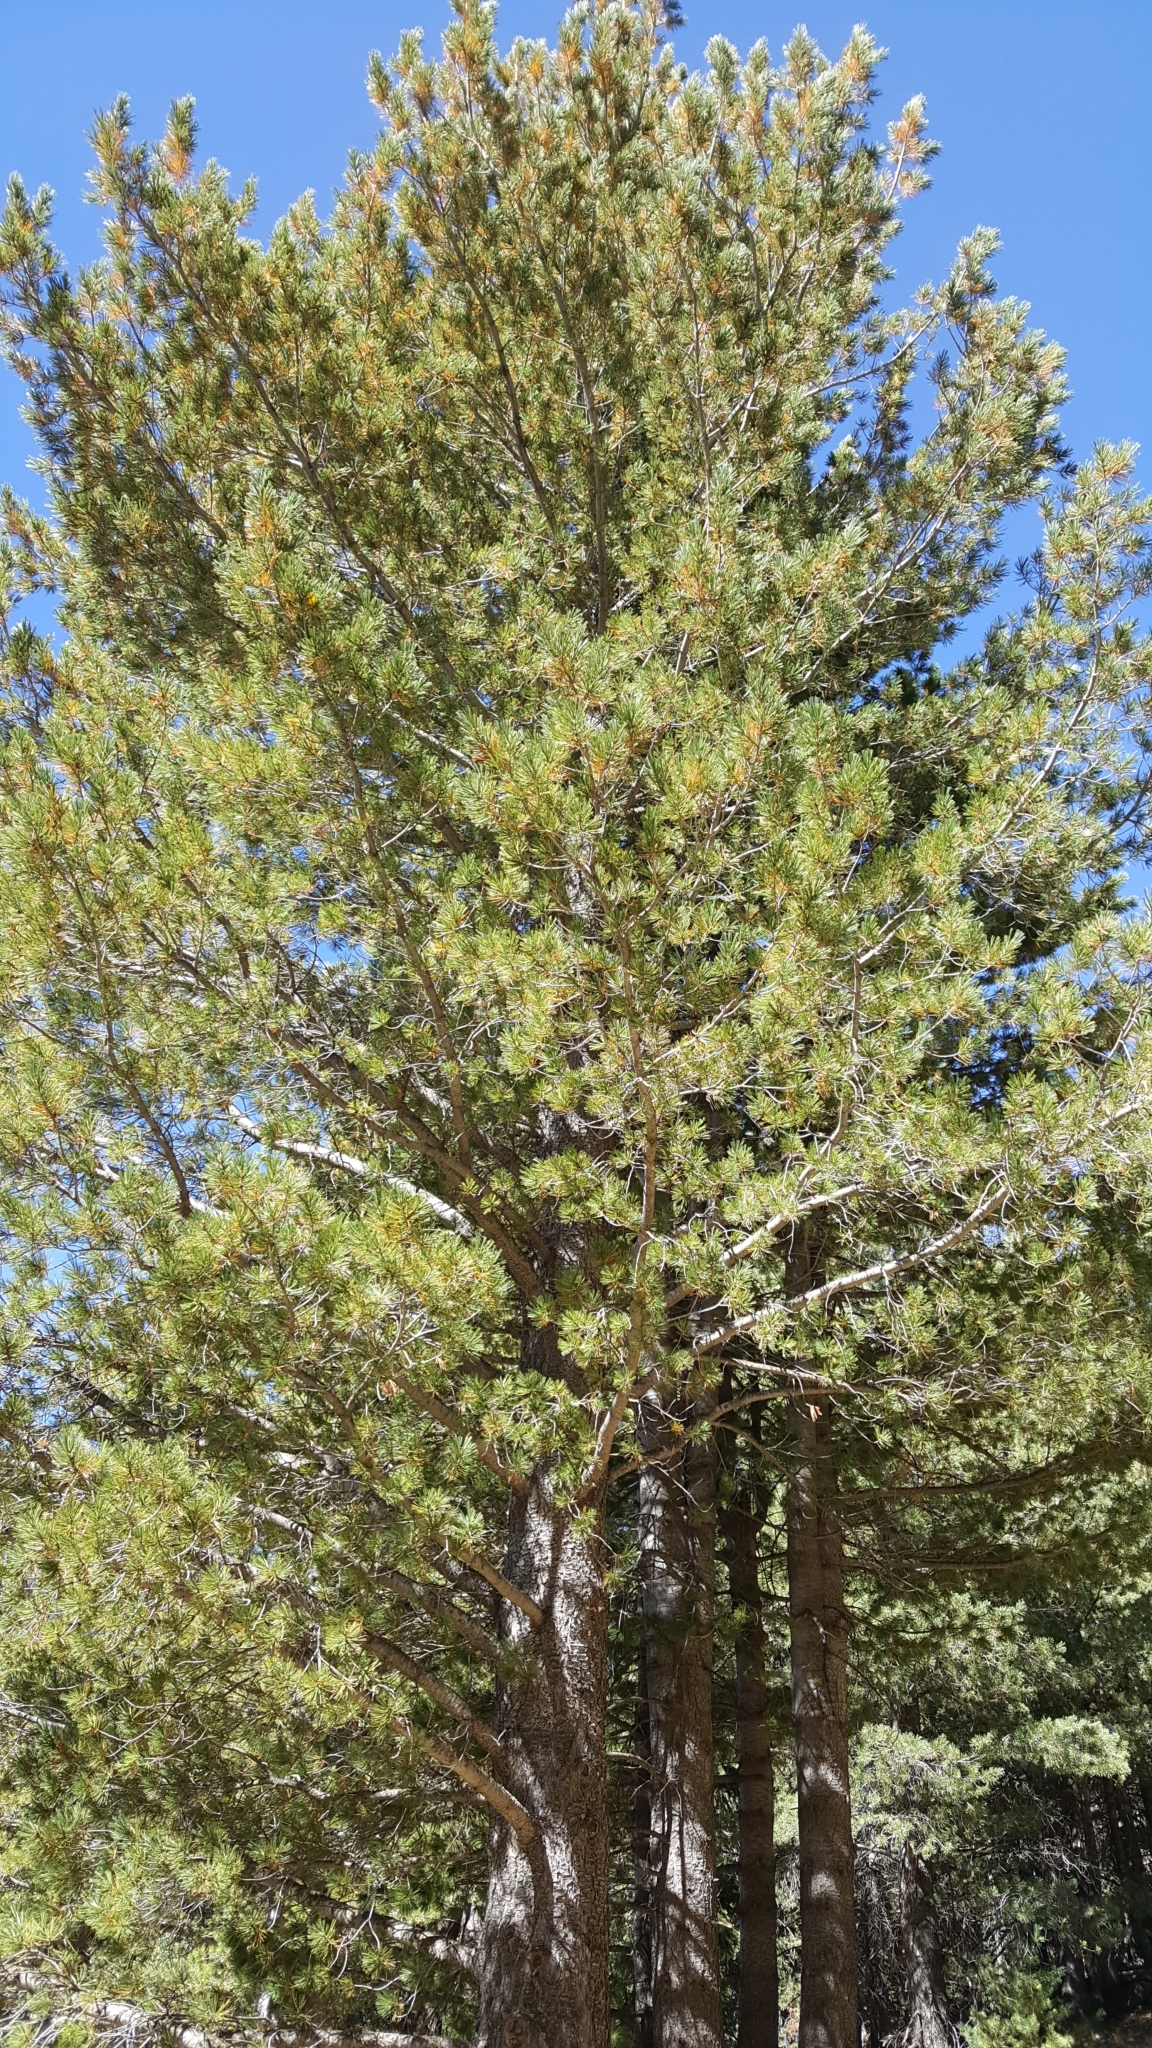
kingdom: Plantae
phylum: Tracheophyta
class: Pinopsida
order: Pinales
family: Pinaceae
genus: Pinus
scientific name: Pinus flexilis
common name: Limber pine
